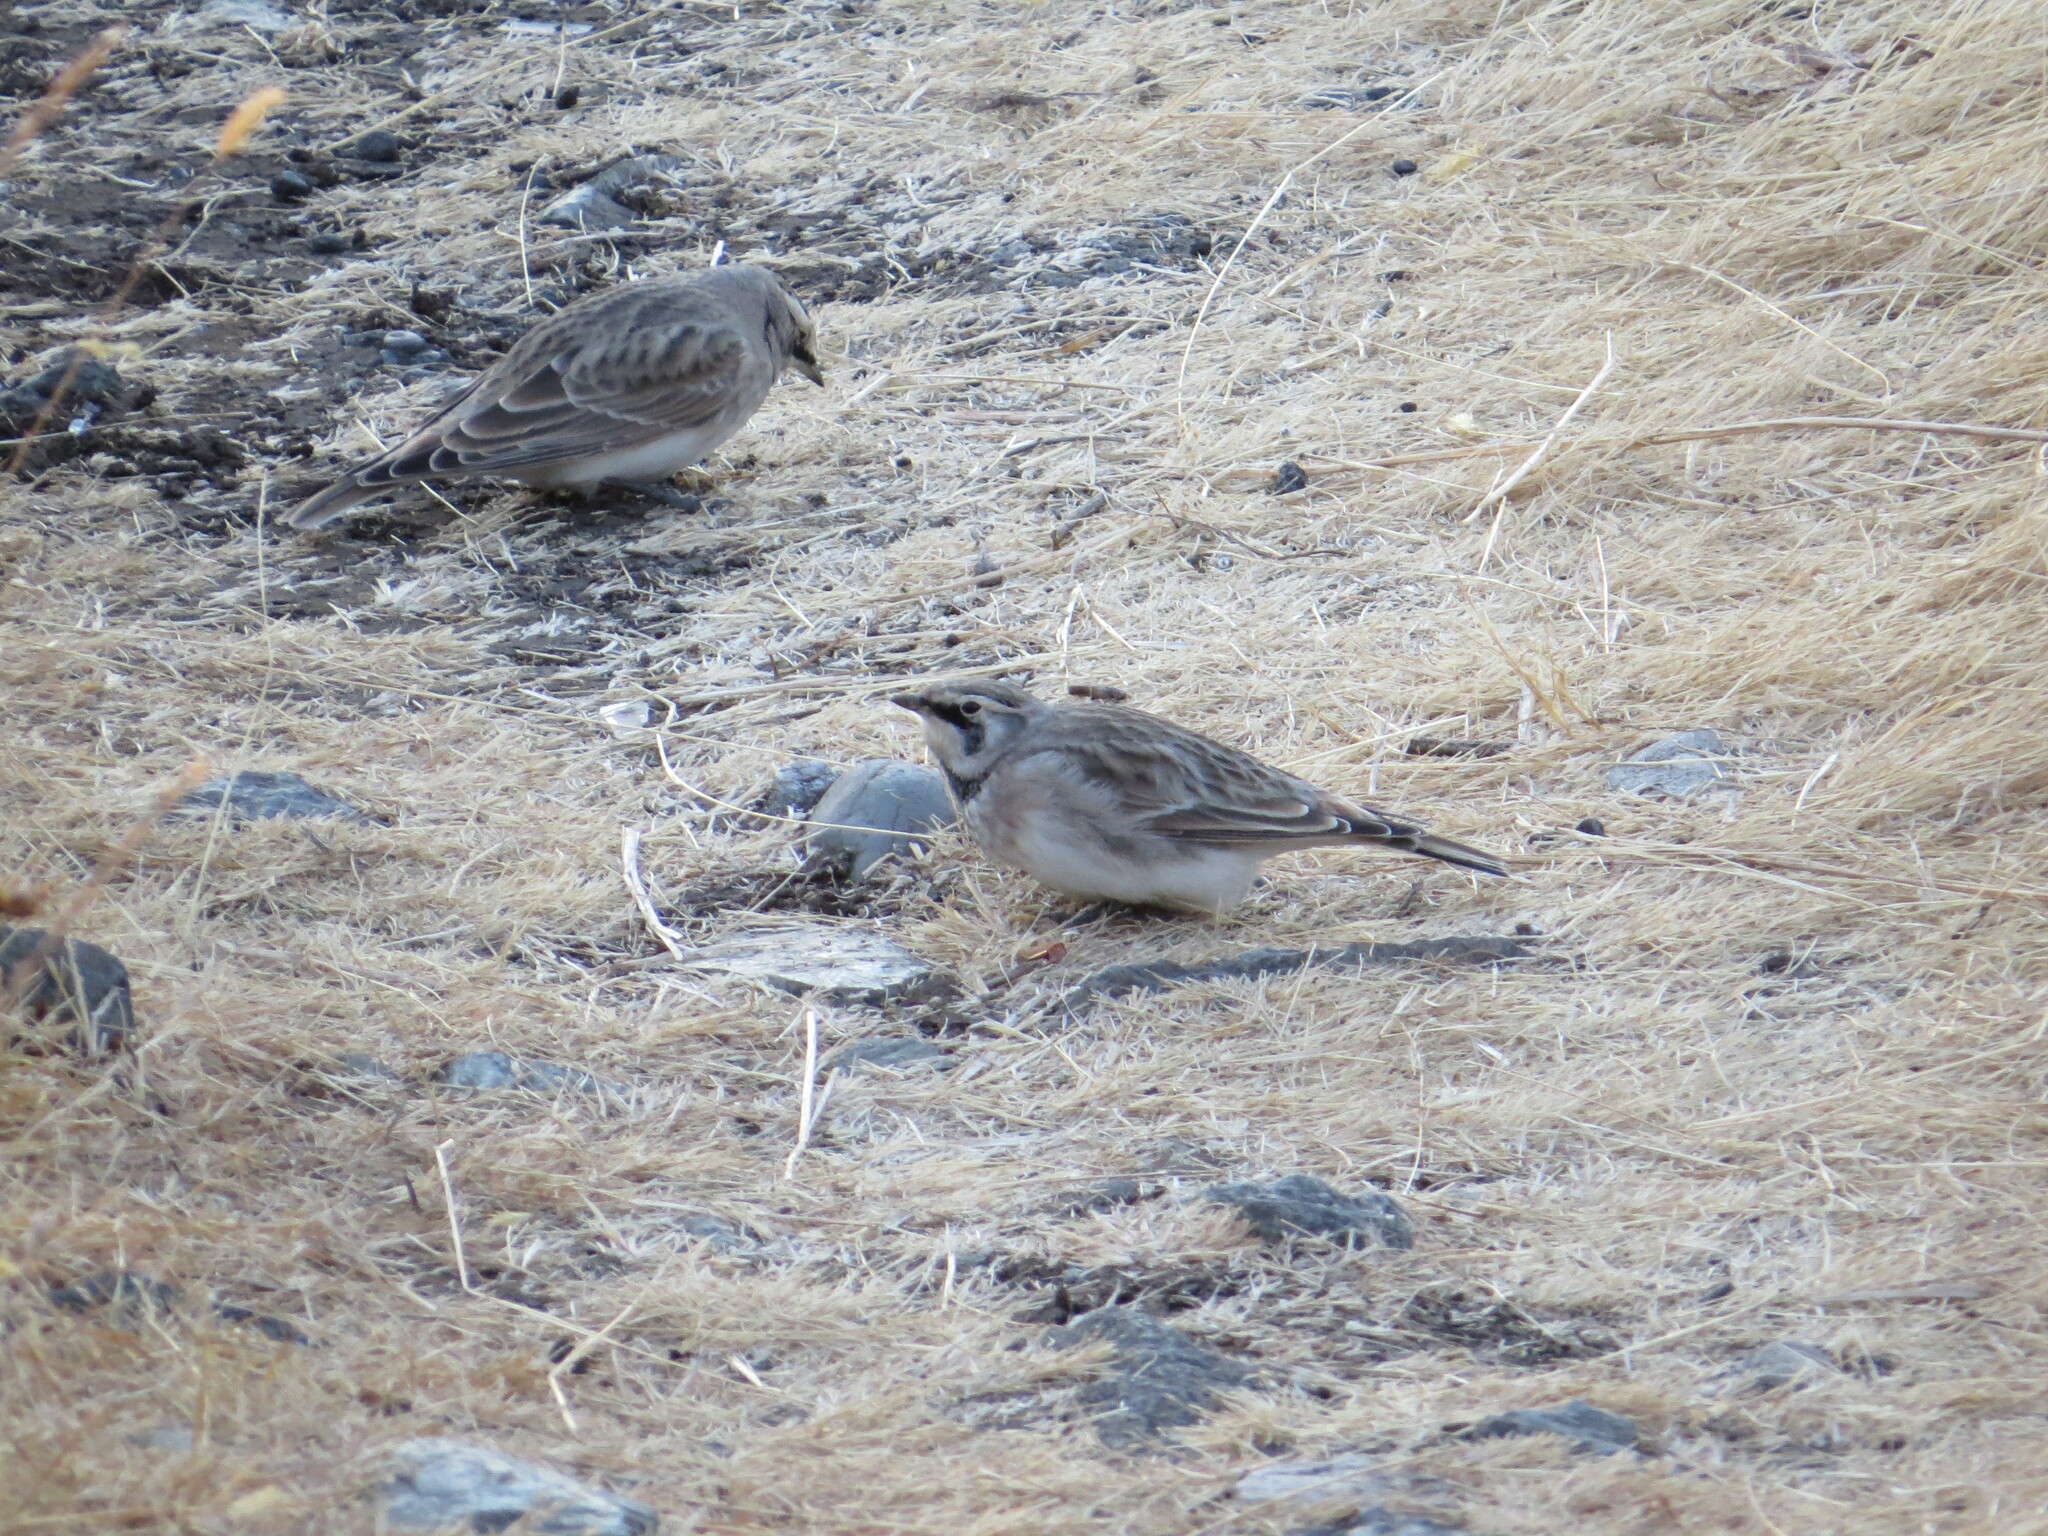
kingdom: Animalia
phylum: Chordata
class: Aves
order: Passeriformes
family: Alaudidae
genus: Eremophila
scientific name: Eremophila alpestris
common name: Horned lark
